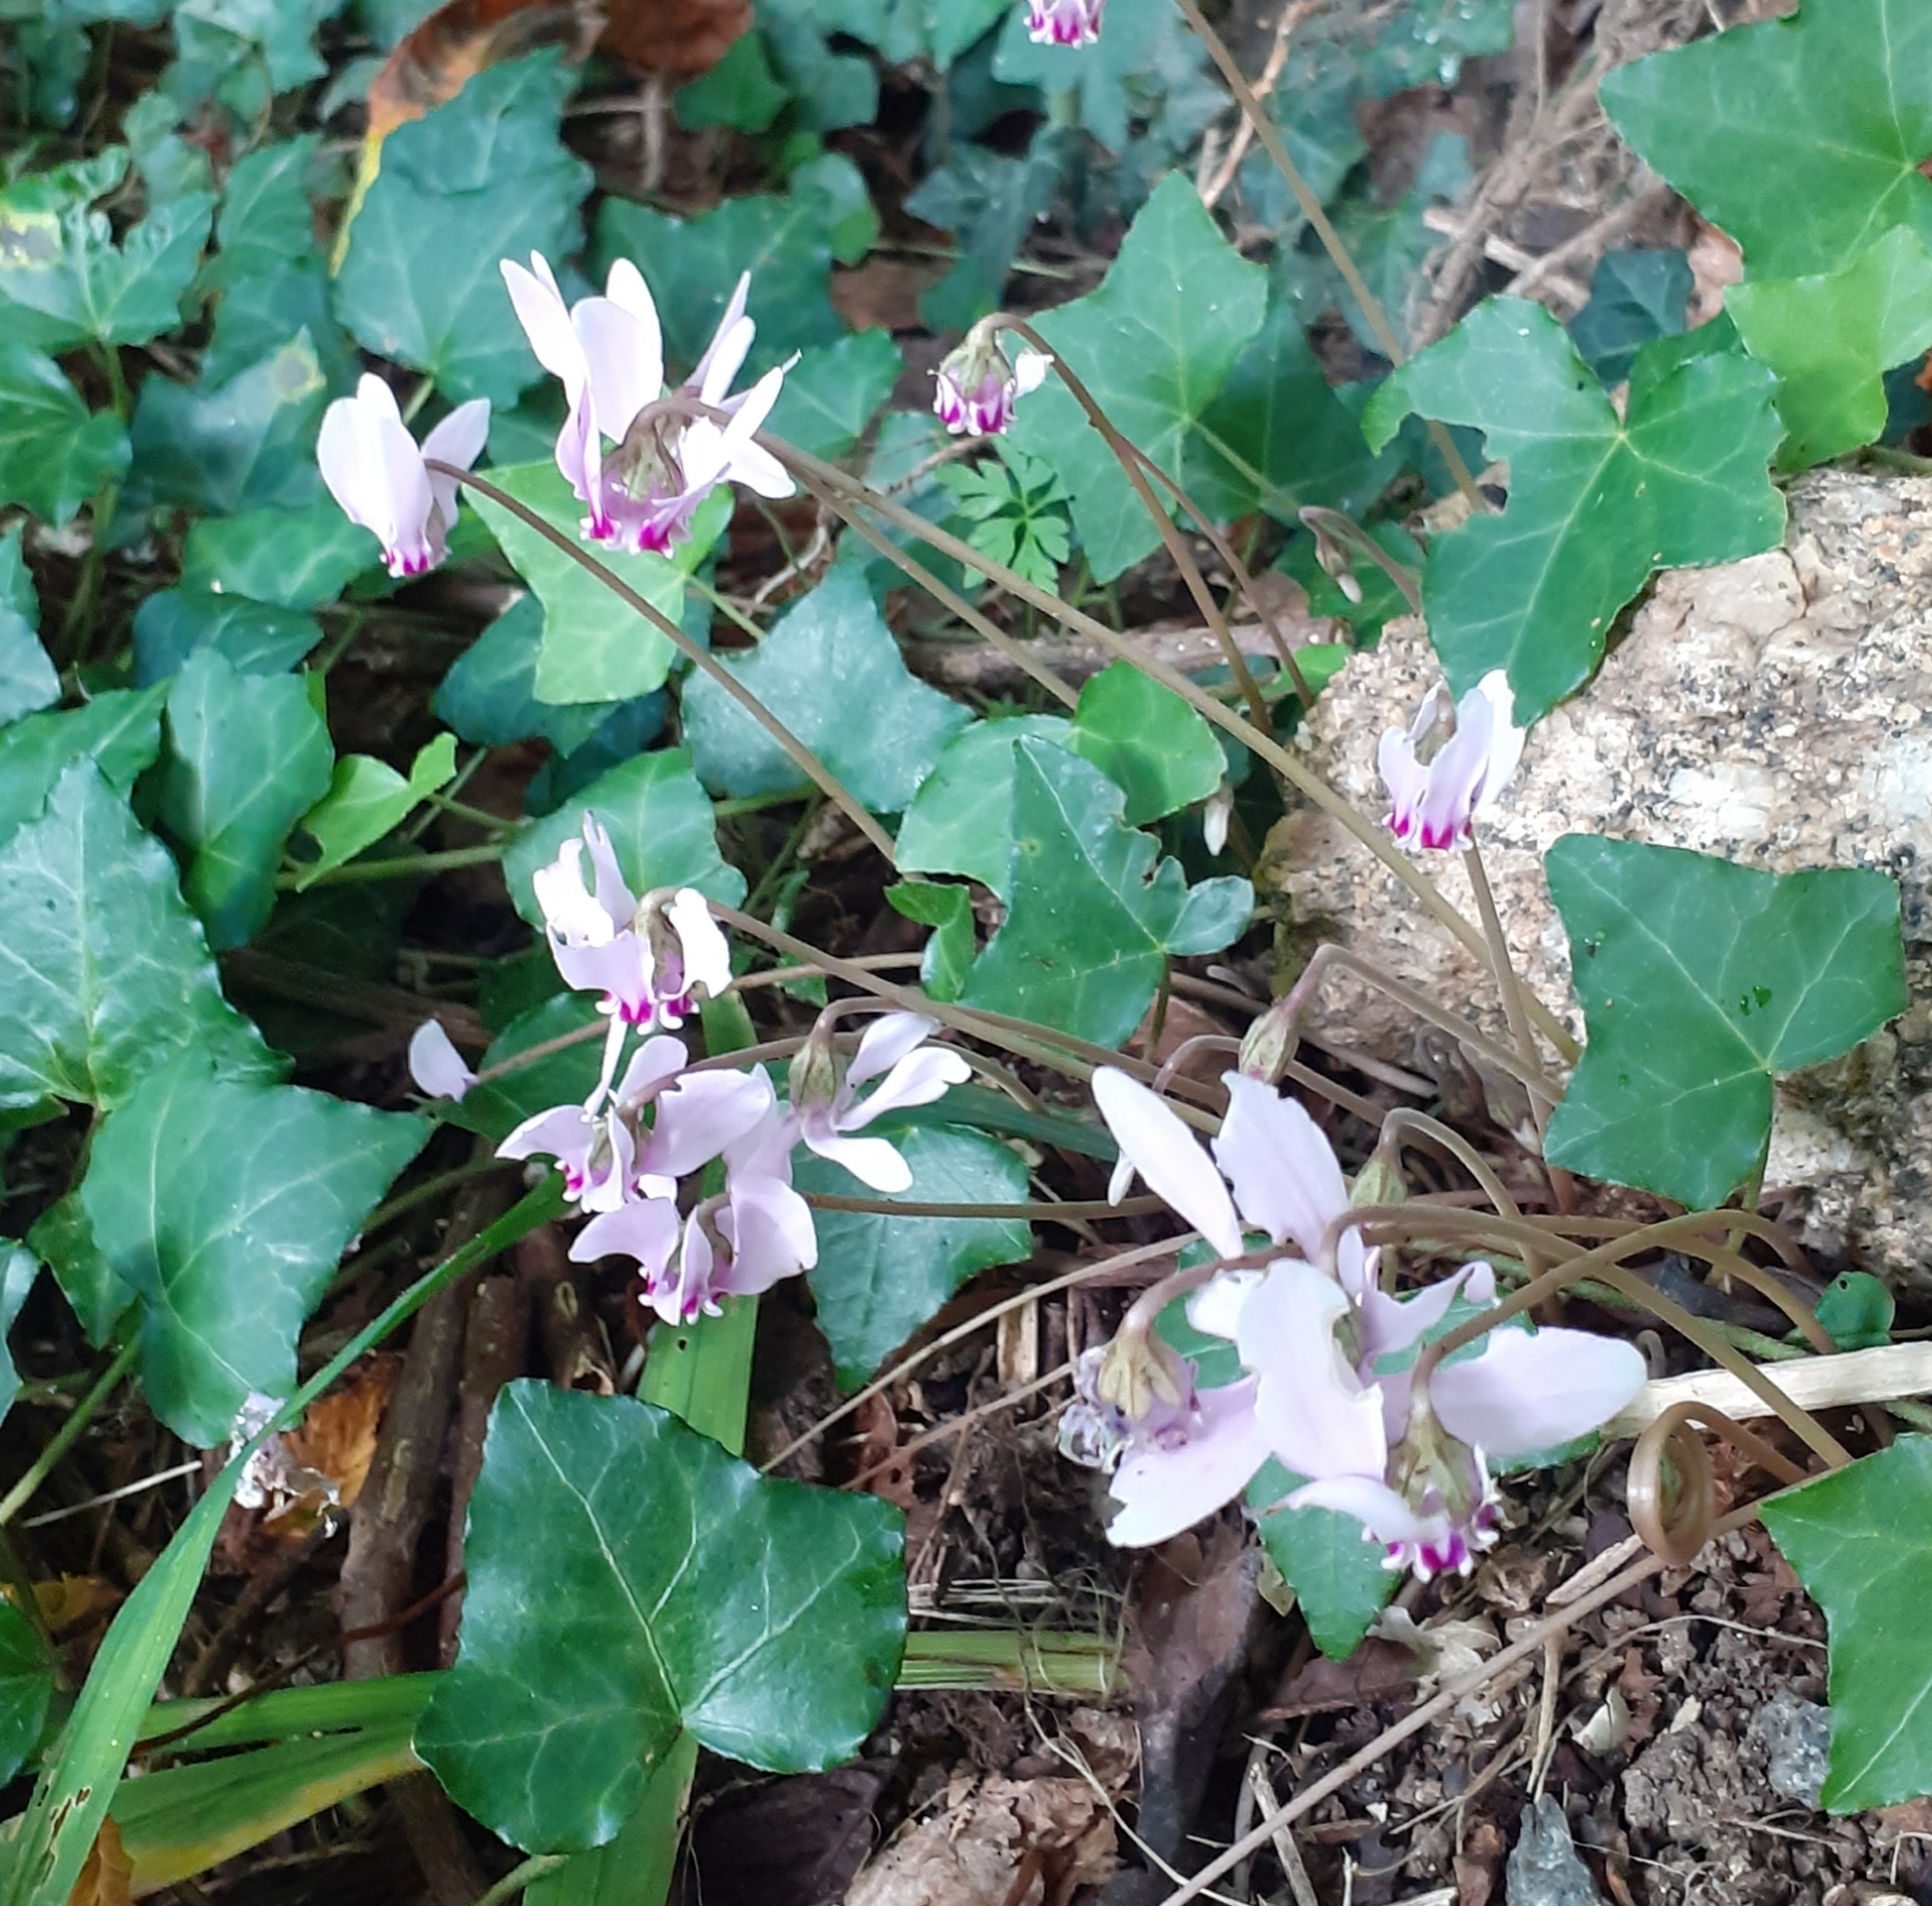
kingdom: Plantae
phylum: Tracheophyta
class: Magnoliopsida
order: Ericales
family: Primulaceae
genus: Cyclamen
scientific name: Cyclamen hederifolium
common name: Sowbread
